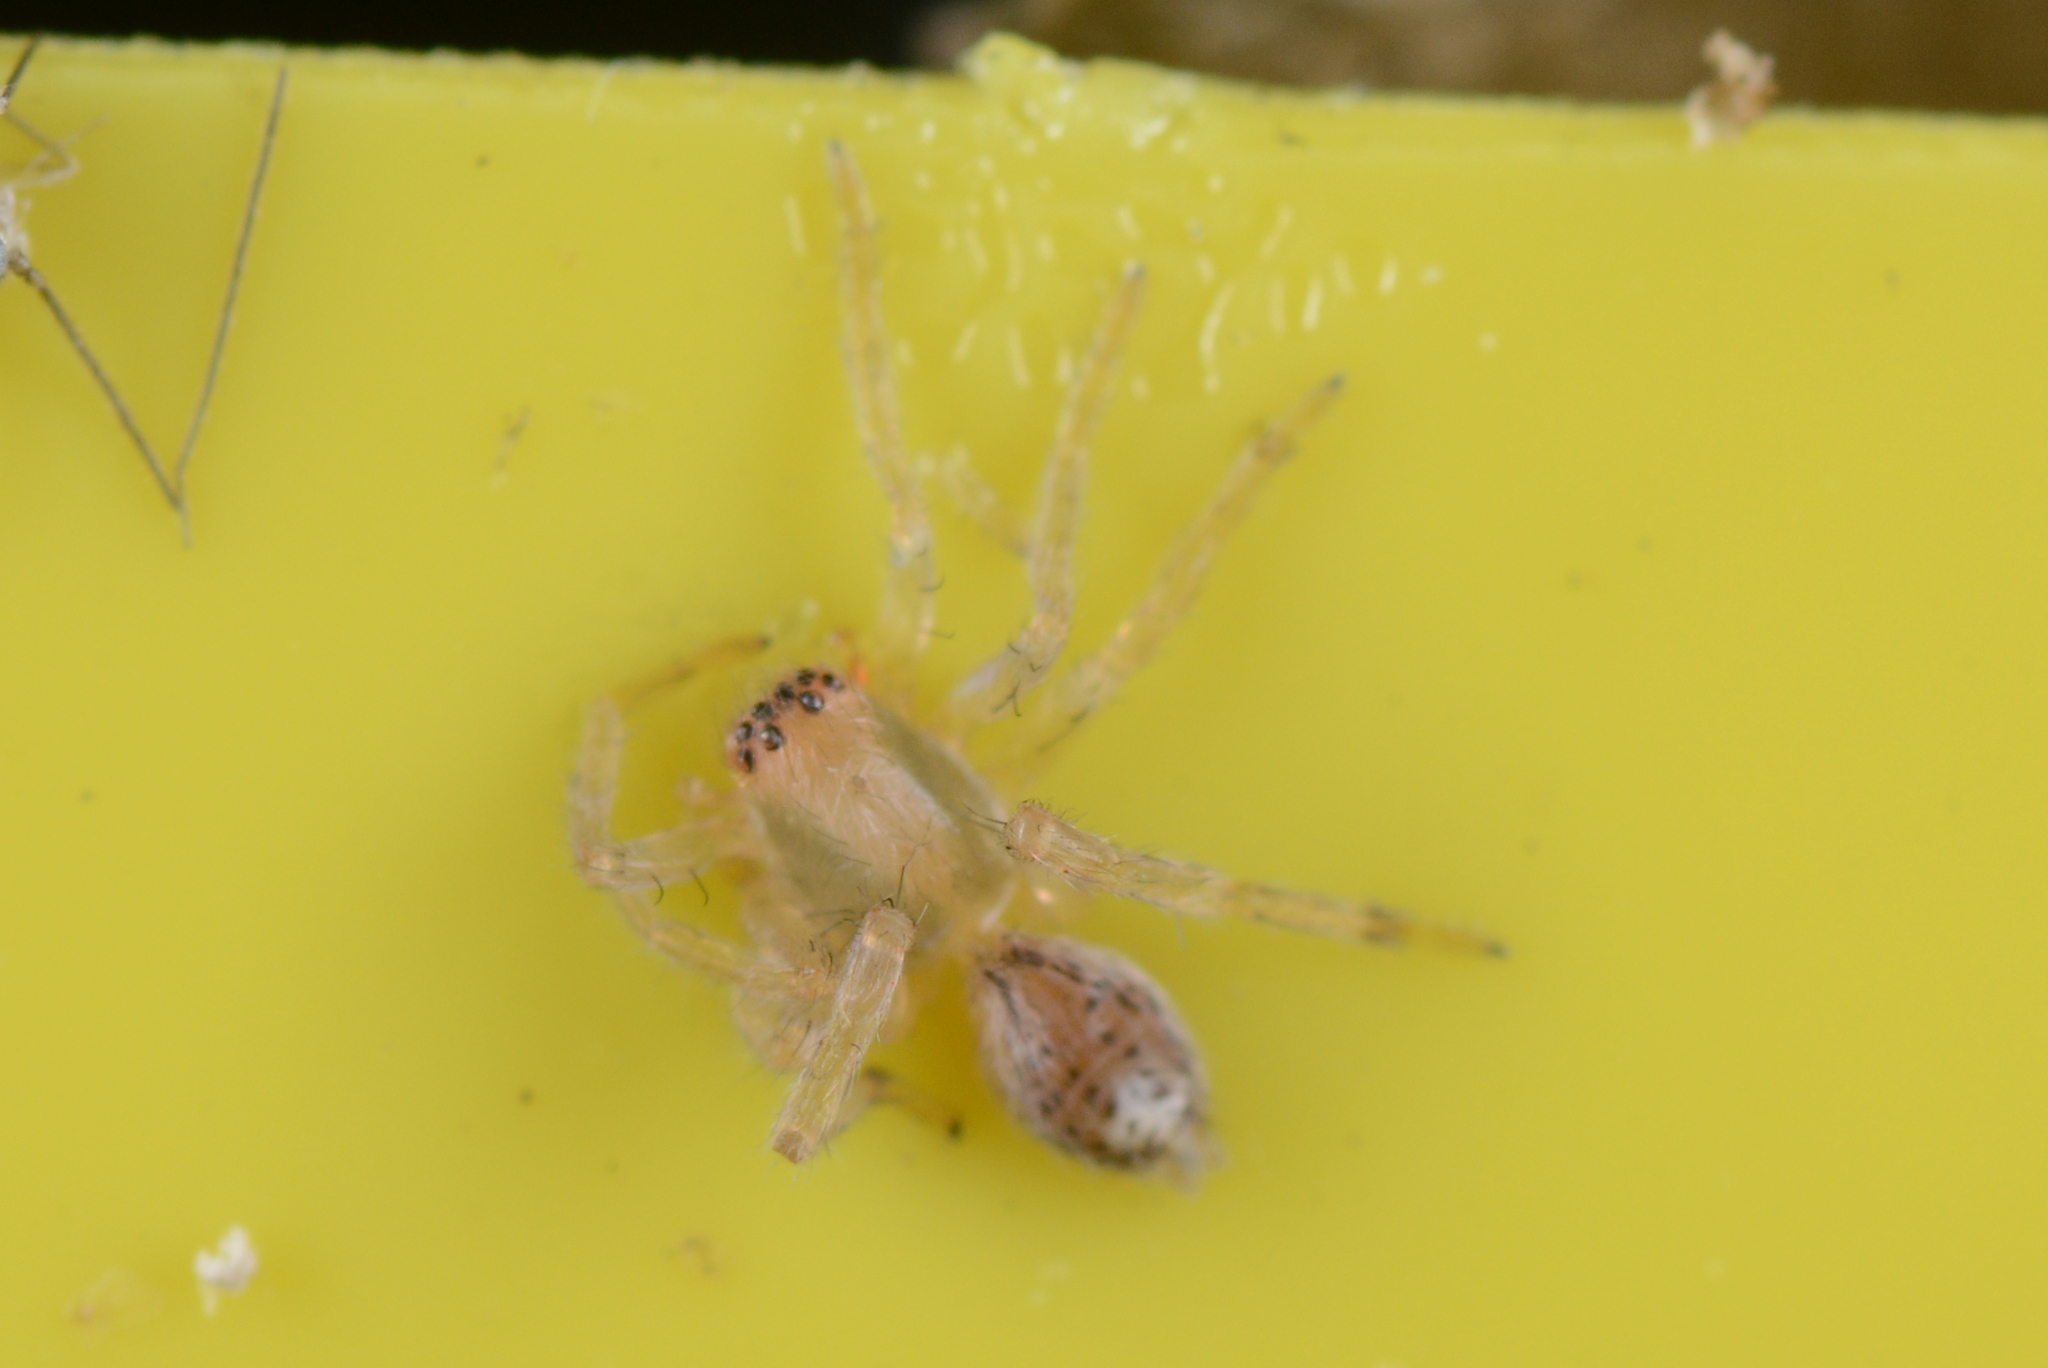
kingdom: Animalia
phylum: Arthropoda
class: Arachnida
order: Araneae
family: Clubionidae
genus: Clubiona
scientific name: Clubiona peculiaris
